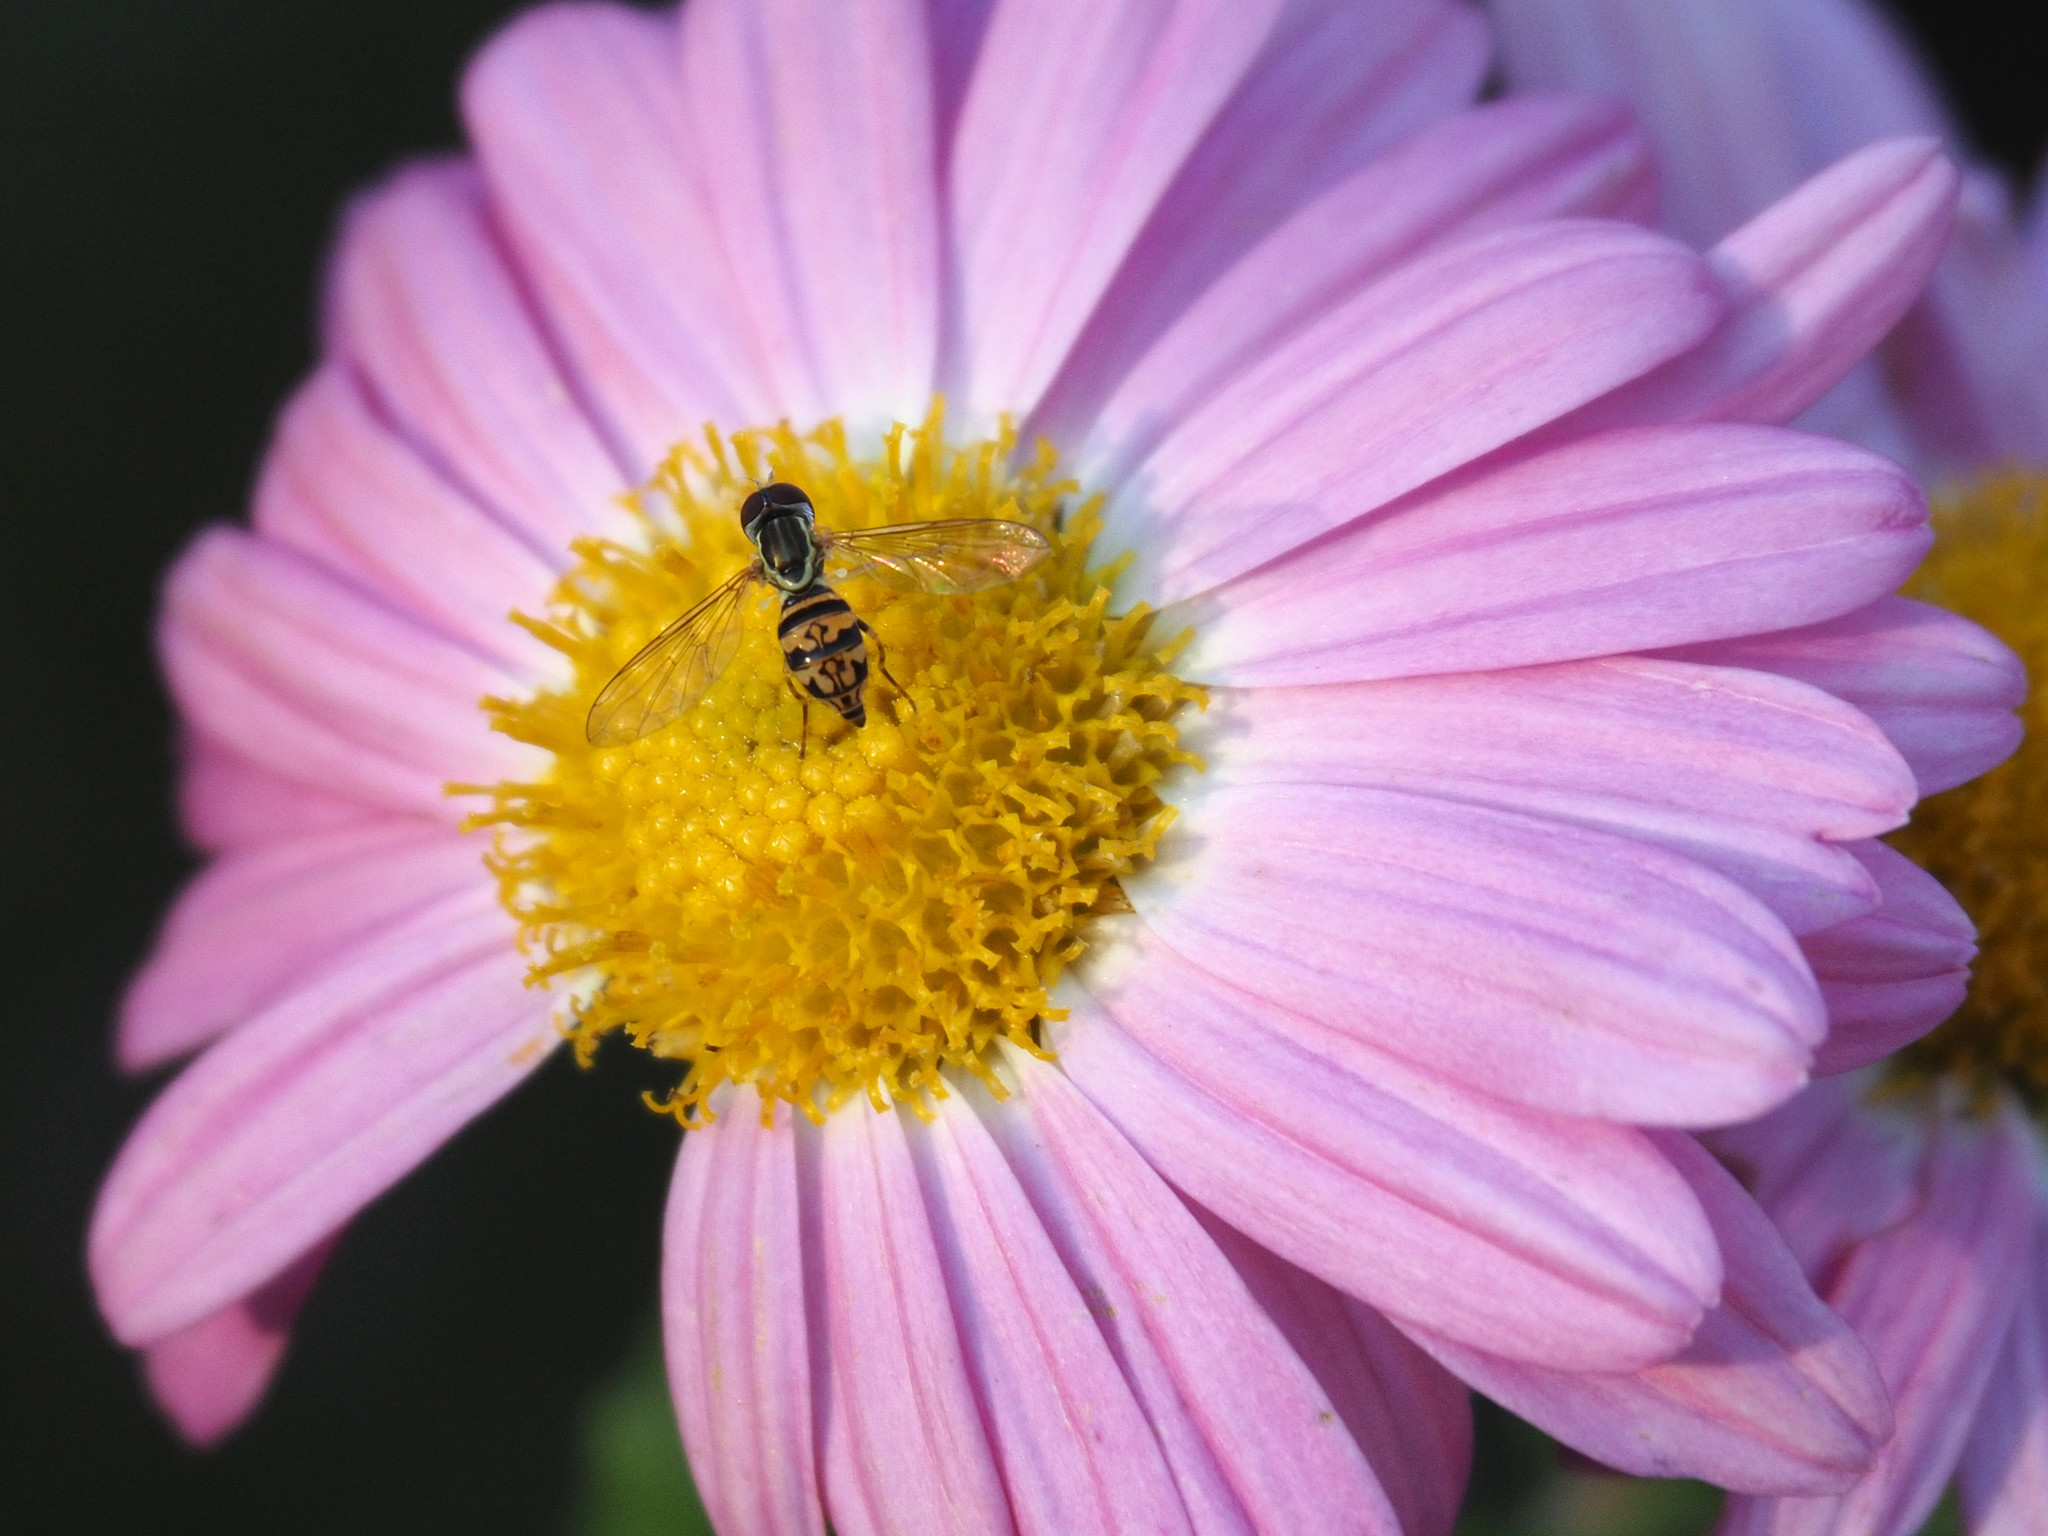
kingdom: Animalia
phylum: Arthropoda
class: Insecta
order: Diptera
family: Syrphidae
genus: Toxomerus
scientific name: Toxomerus geminatus
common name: Eastern calligrapher
